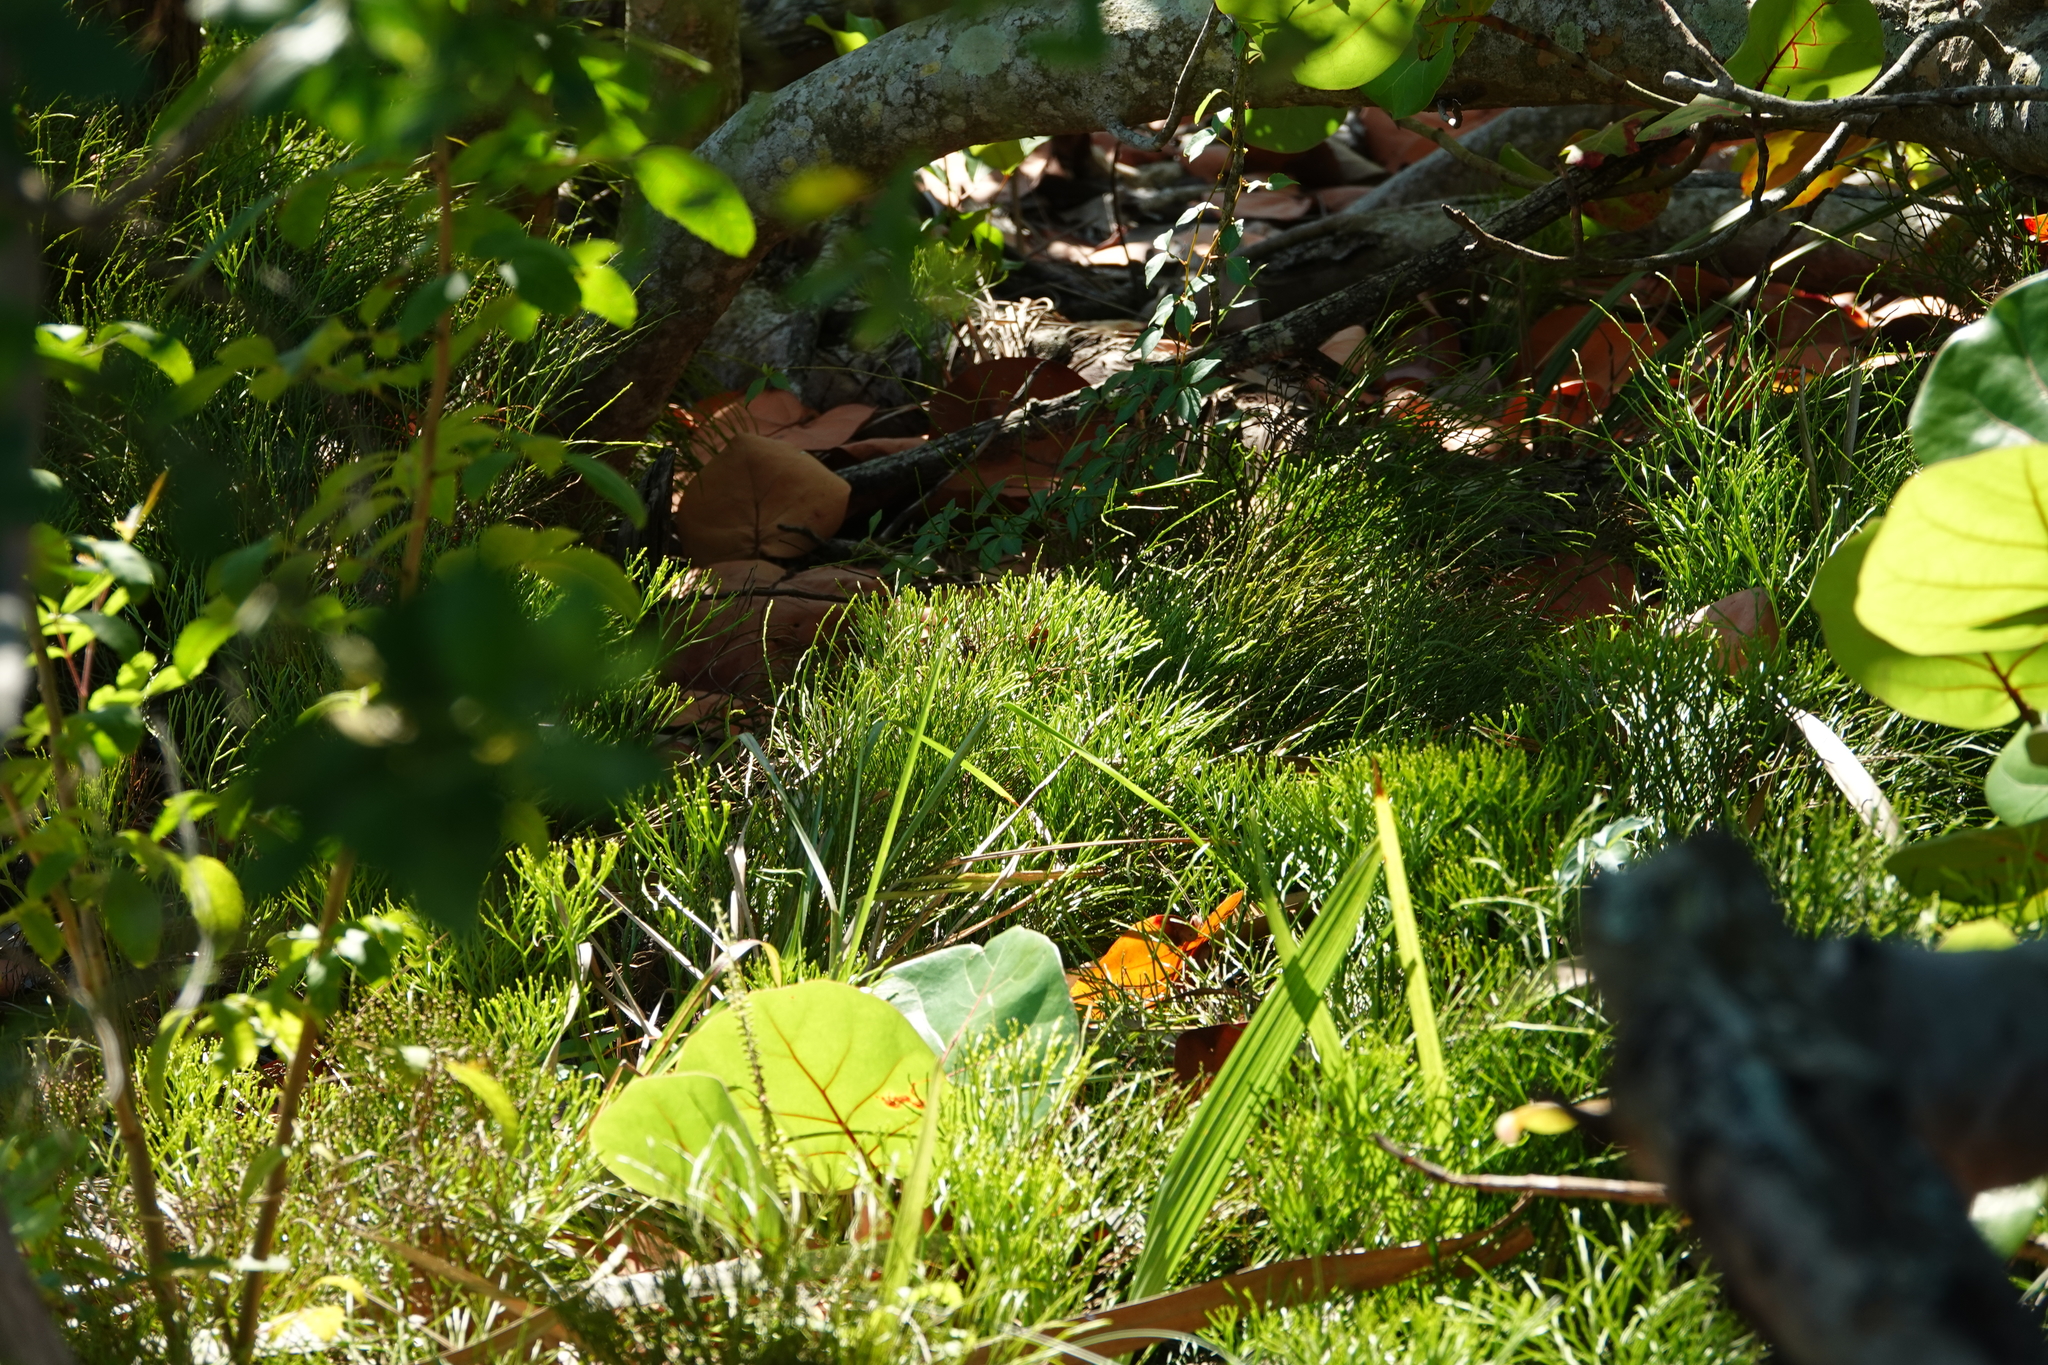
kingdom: Plantae
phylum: Tracheophyta
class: Polypodiopsida
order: Psilotales
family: Psilotaceae
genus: Psilotum
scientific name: Psilotum nudum
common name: Skeleton fork fern
